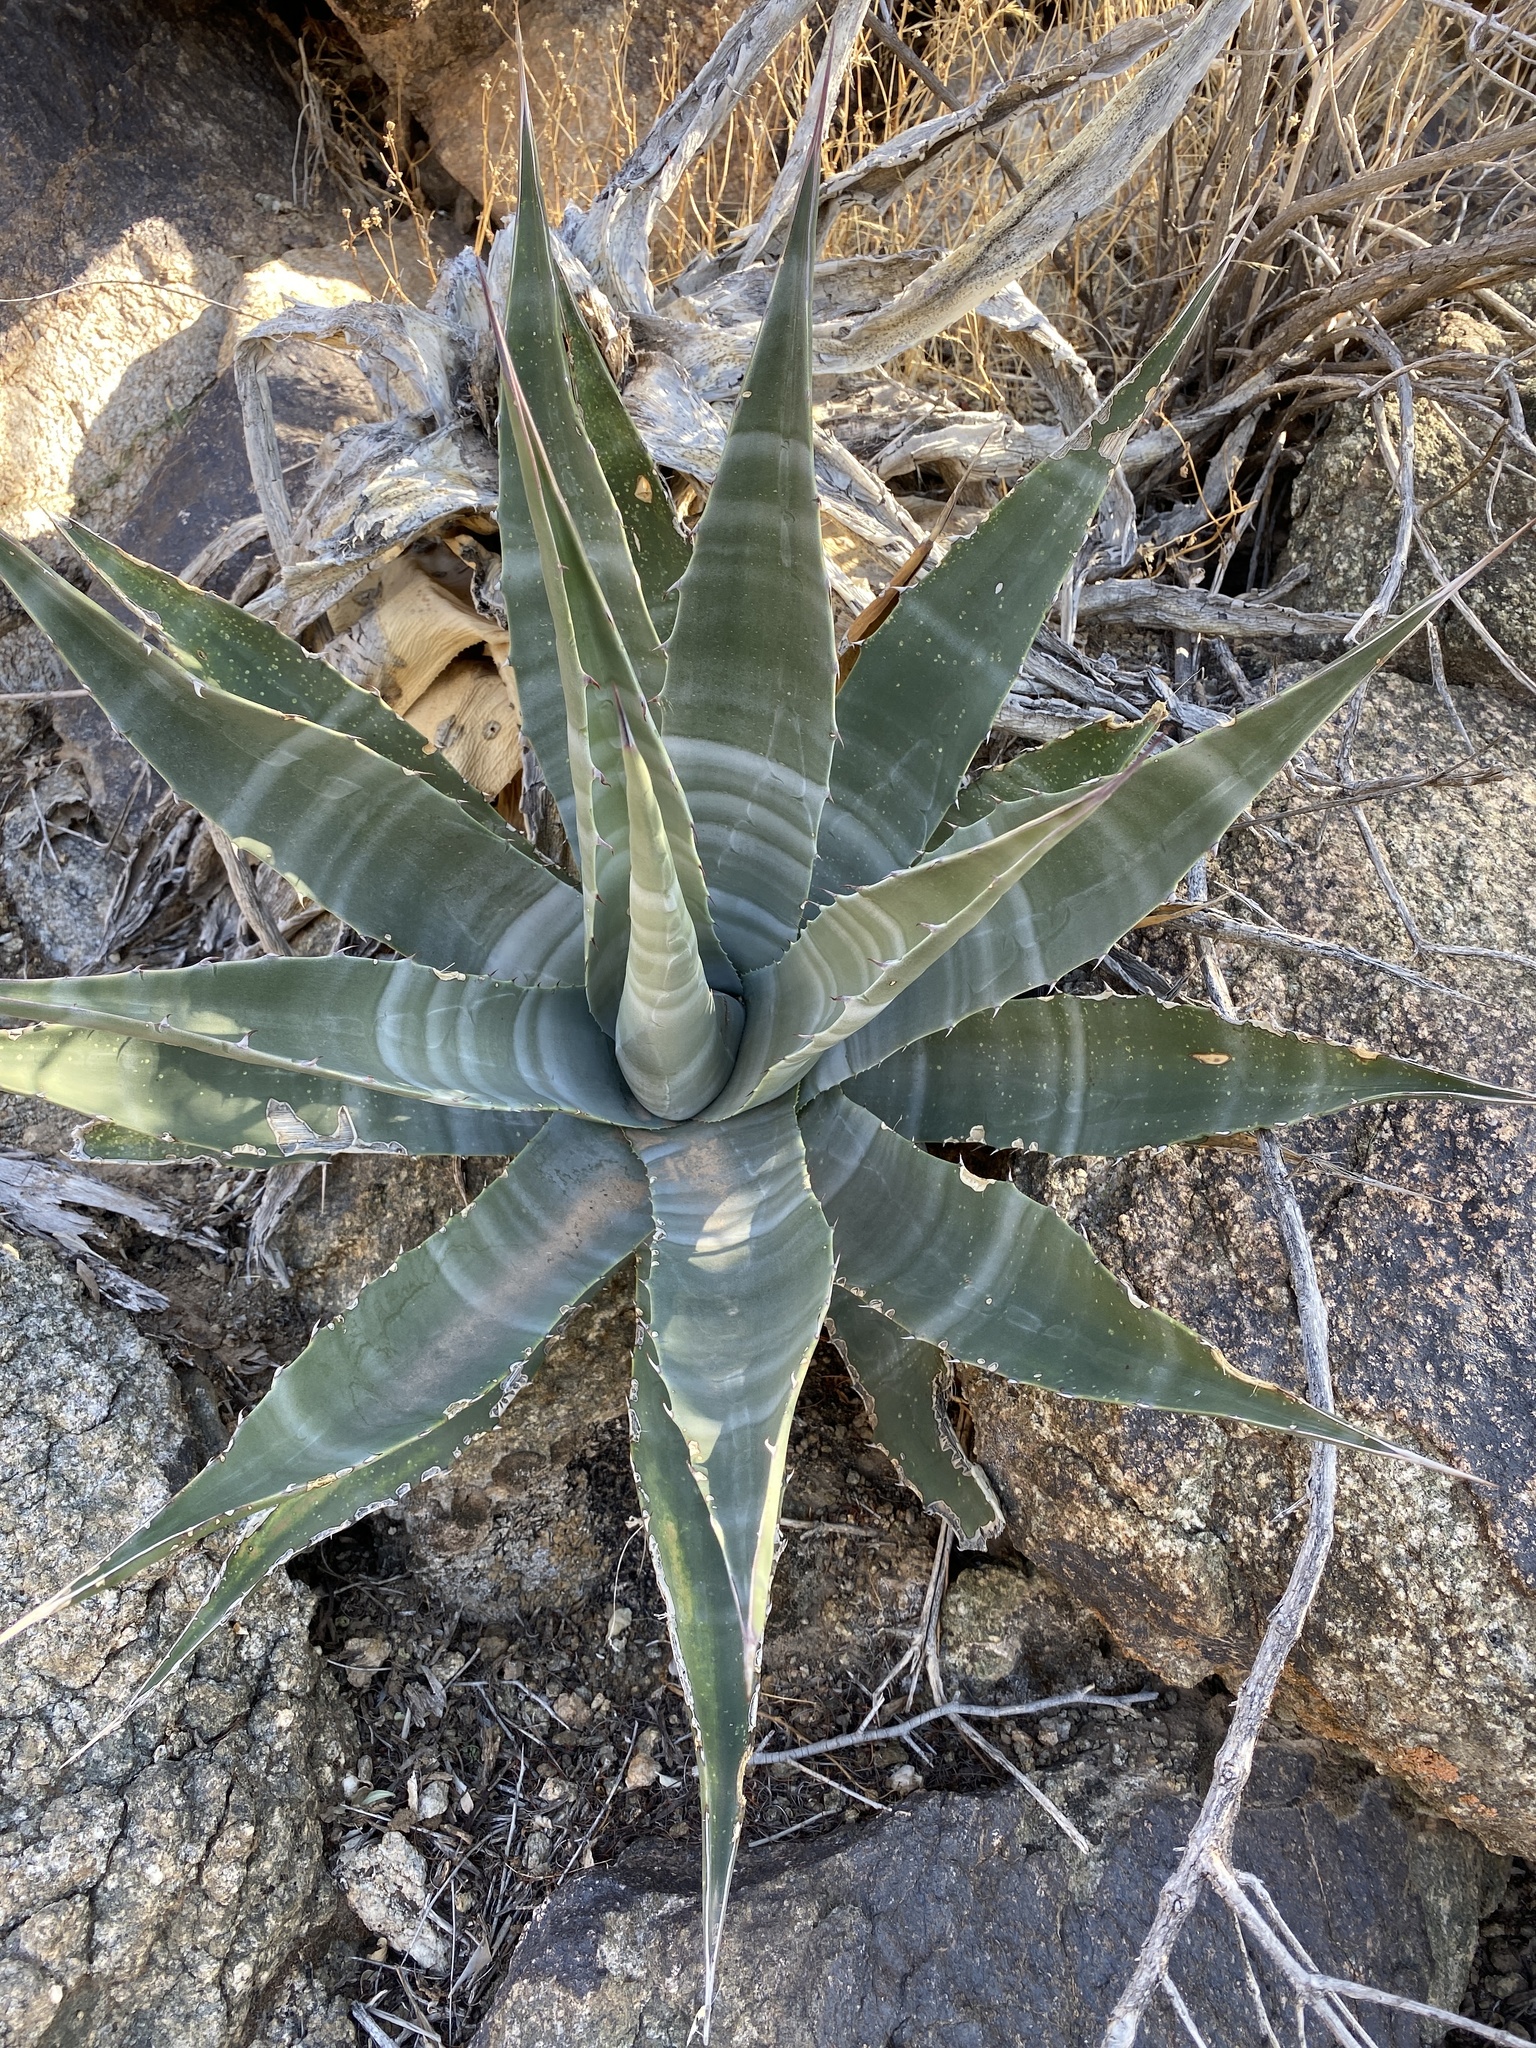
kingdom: Plantae
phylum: Tracheophyta
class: Liliopsida
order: Asparagales
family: Asparagaceae
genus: Agave
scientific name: Agave simplex
